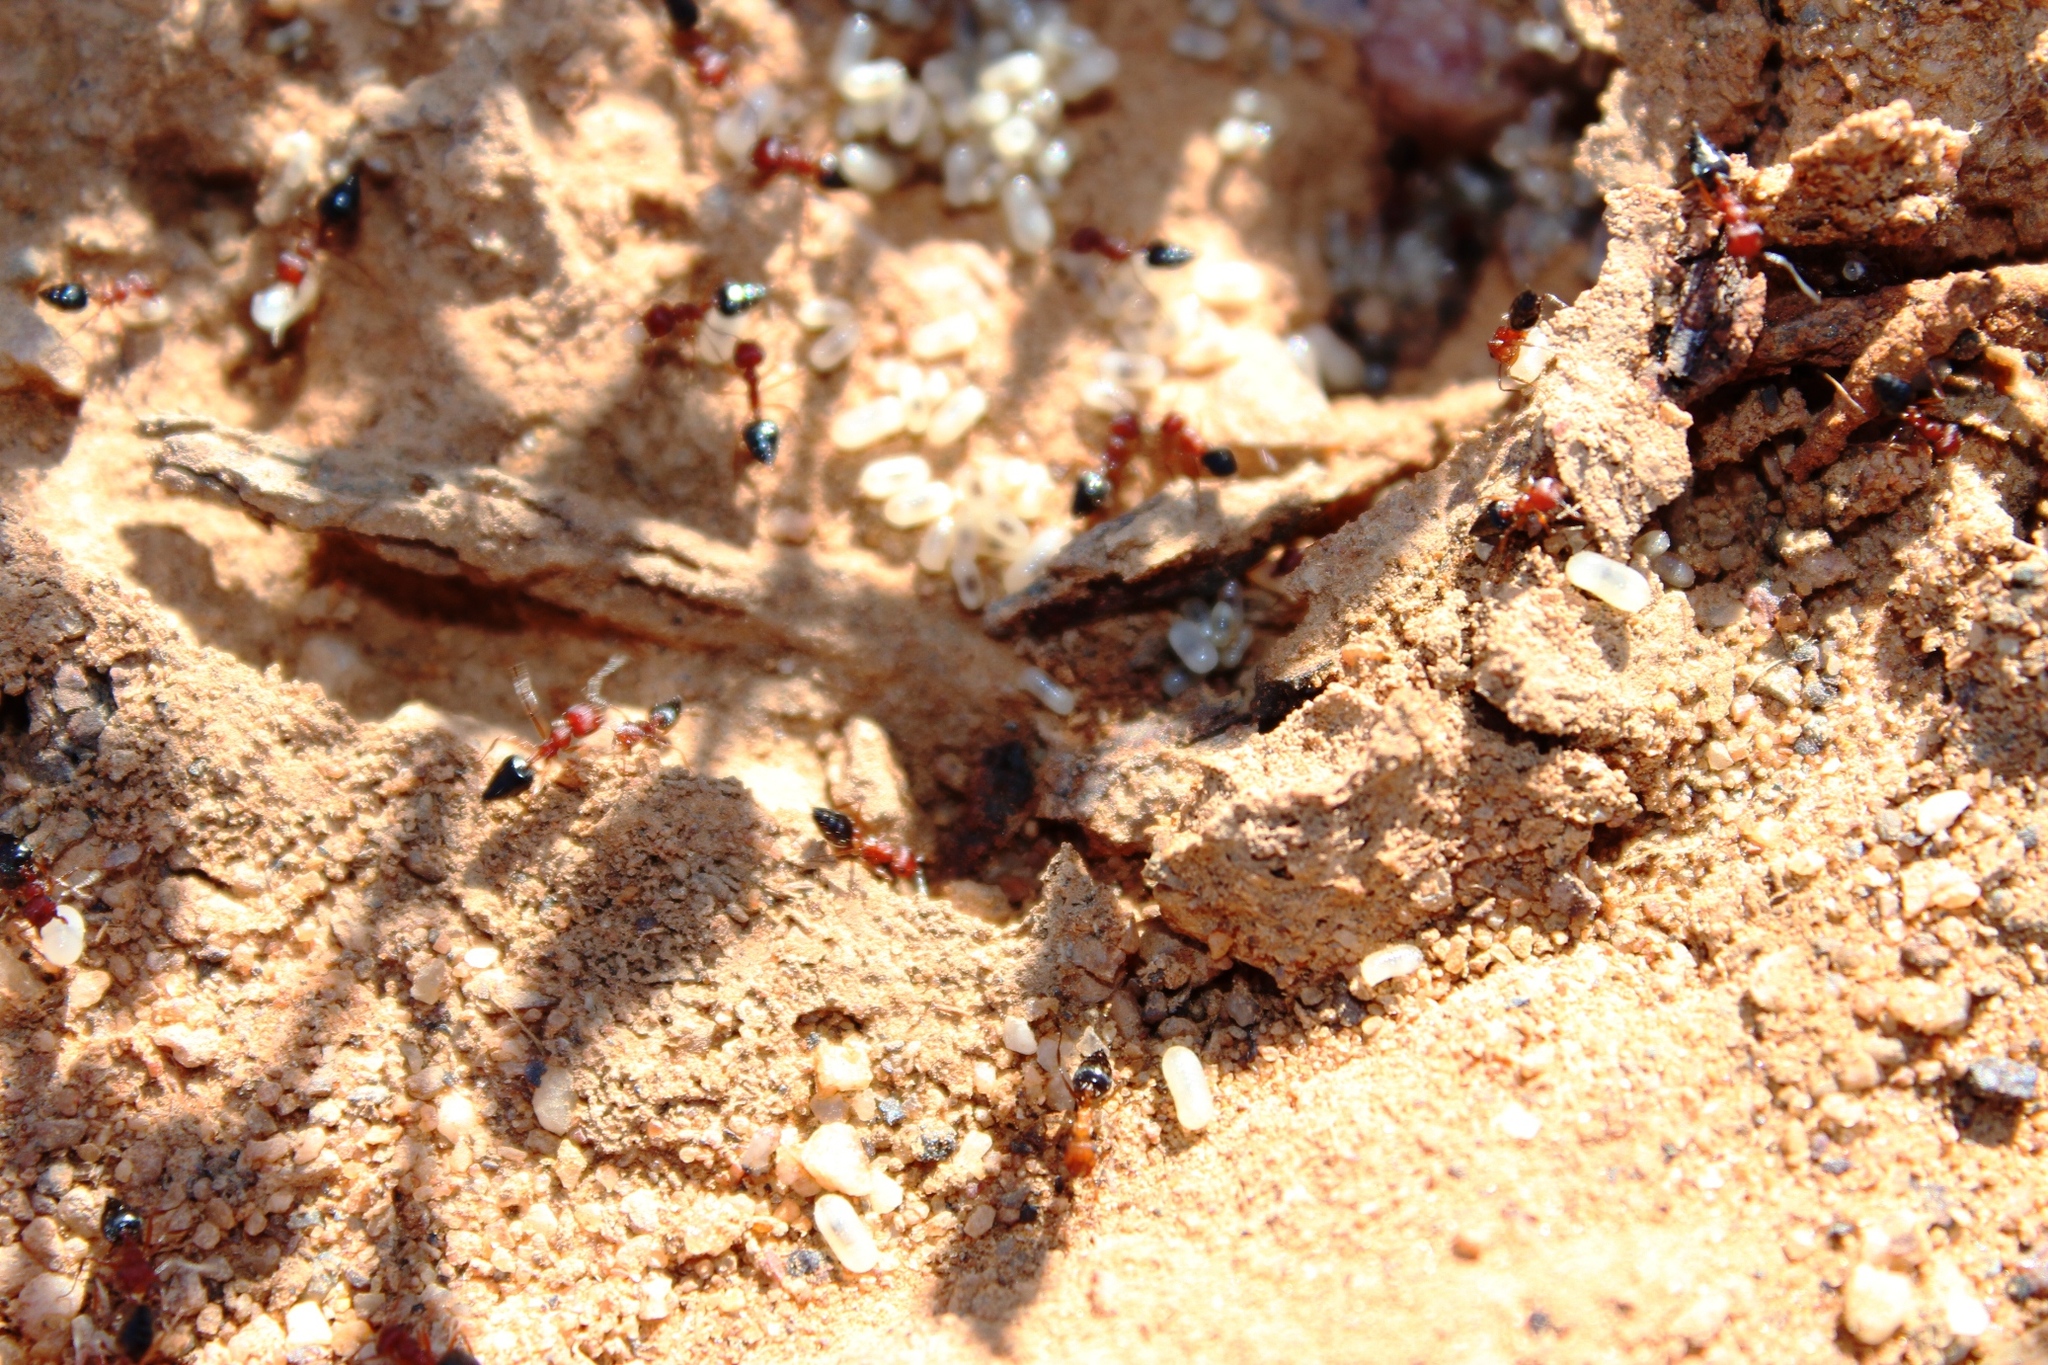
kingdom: Animalia
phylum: Arthropoda
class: Insecta
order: Hymenoptera
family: Formicidae
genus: Crematogaster
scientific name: Crematogaster melanogaster
